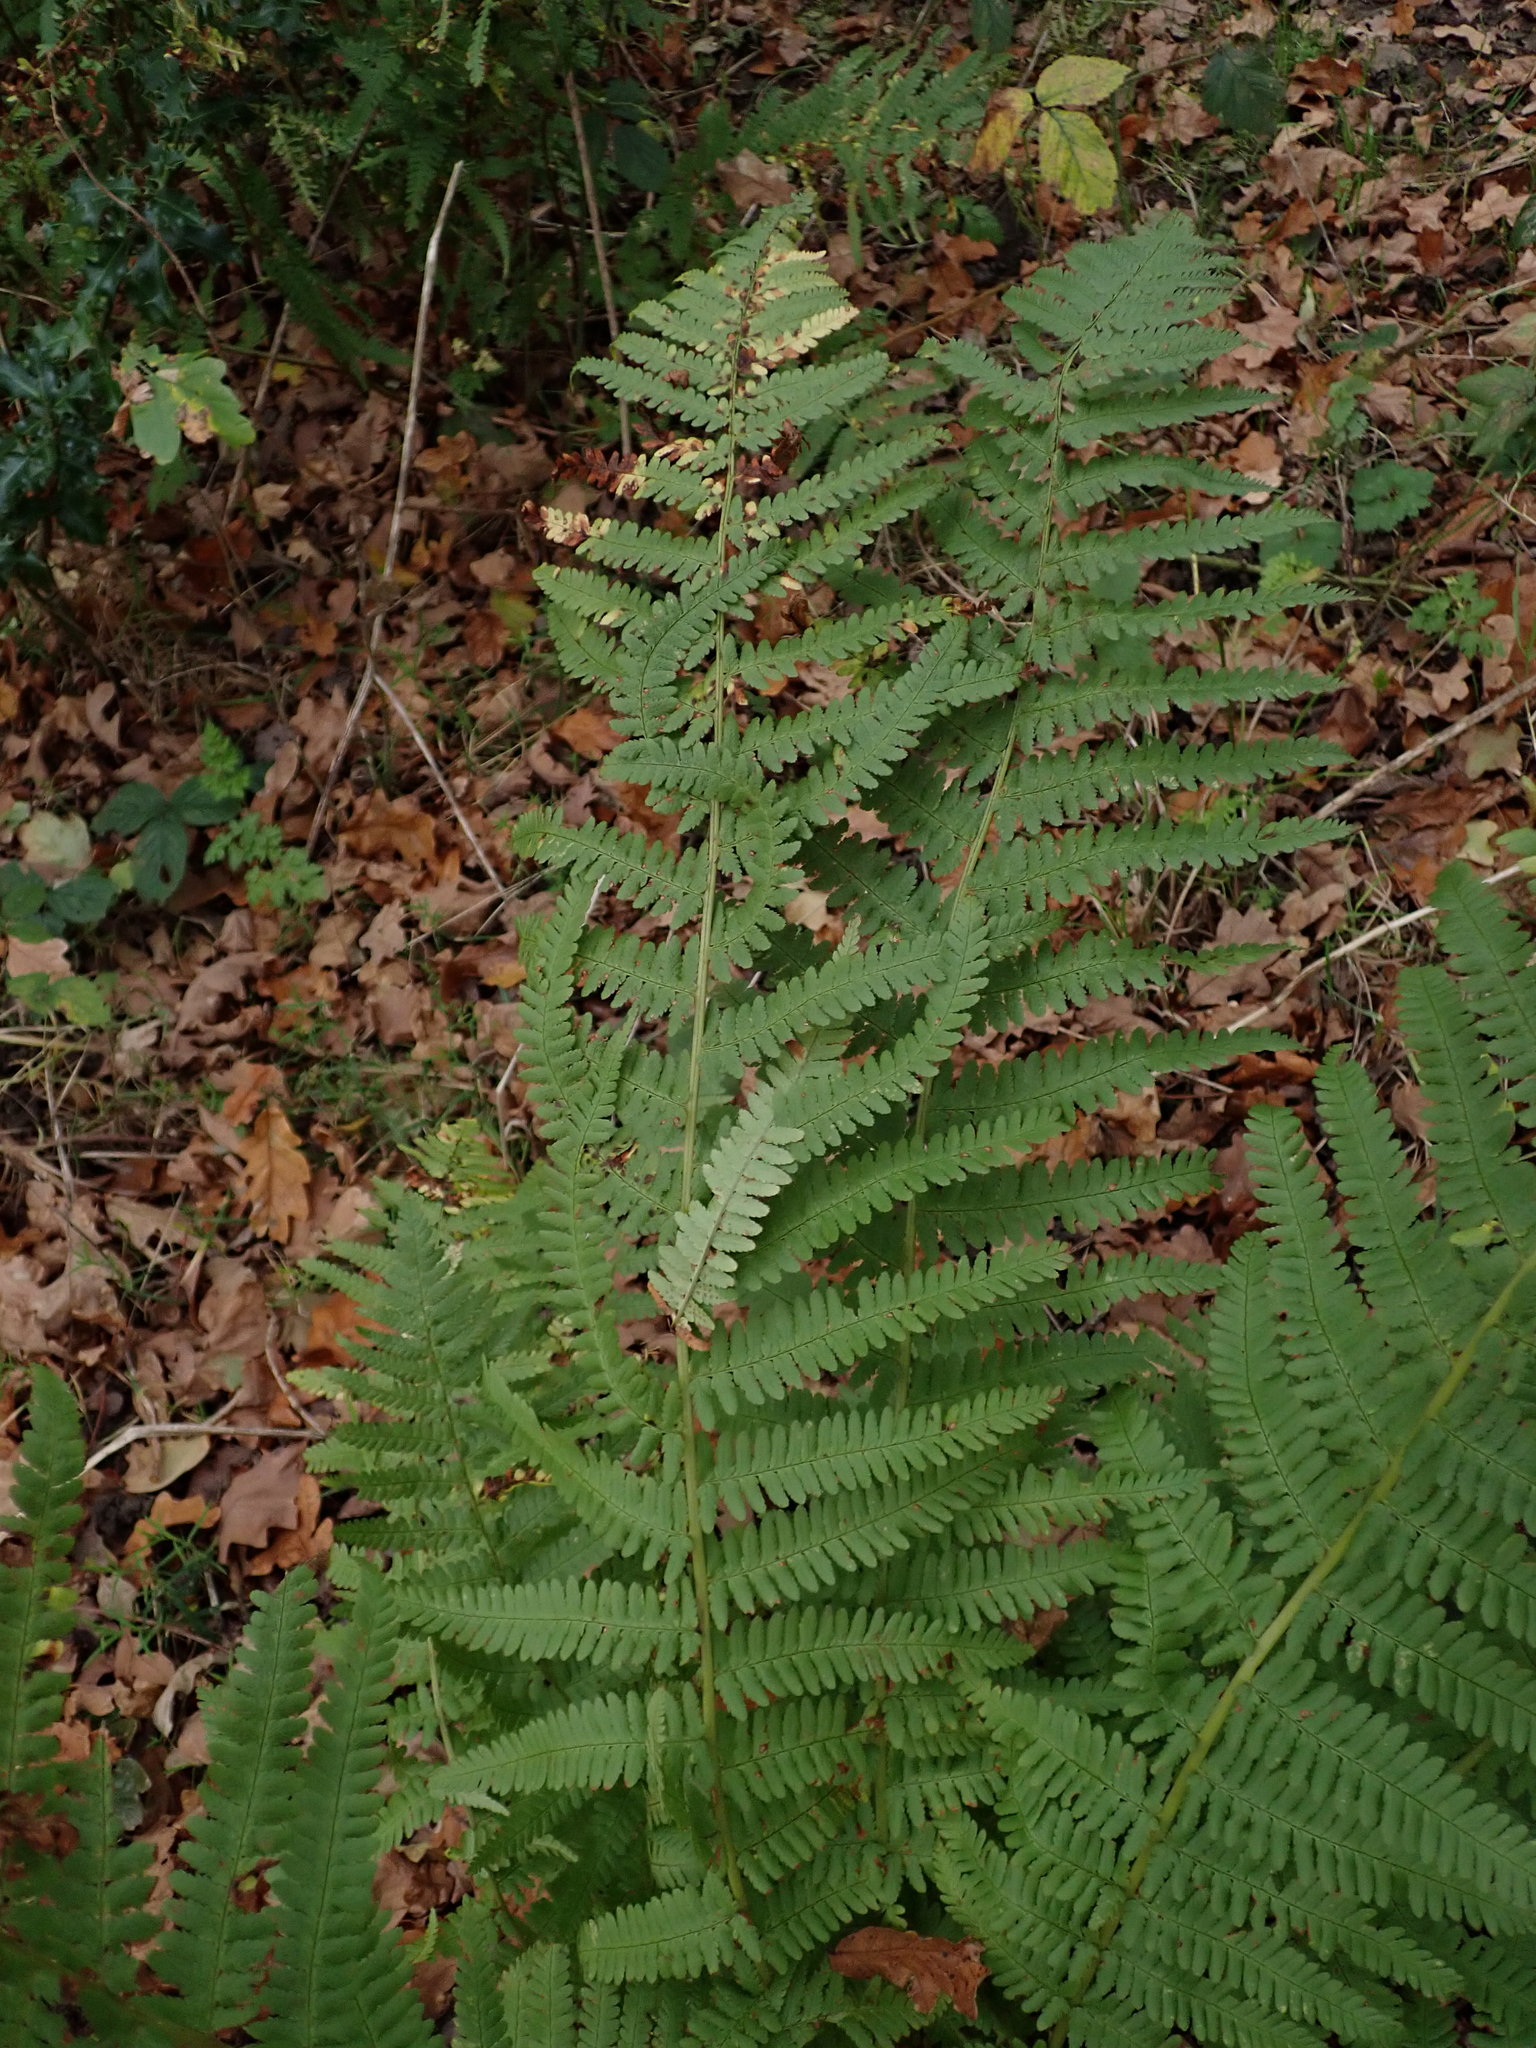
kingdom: Plantae
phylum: Tracheophyta
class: Polypodiopsida
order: Polypodiales
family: Dryopteridaceae
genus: Dryopteris
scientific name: Dryopteris filix-mas
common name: Male fern
